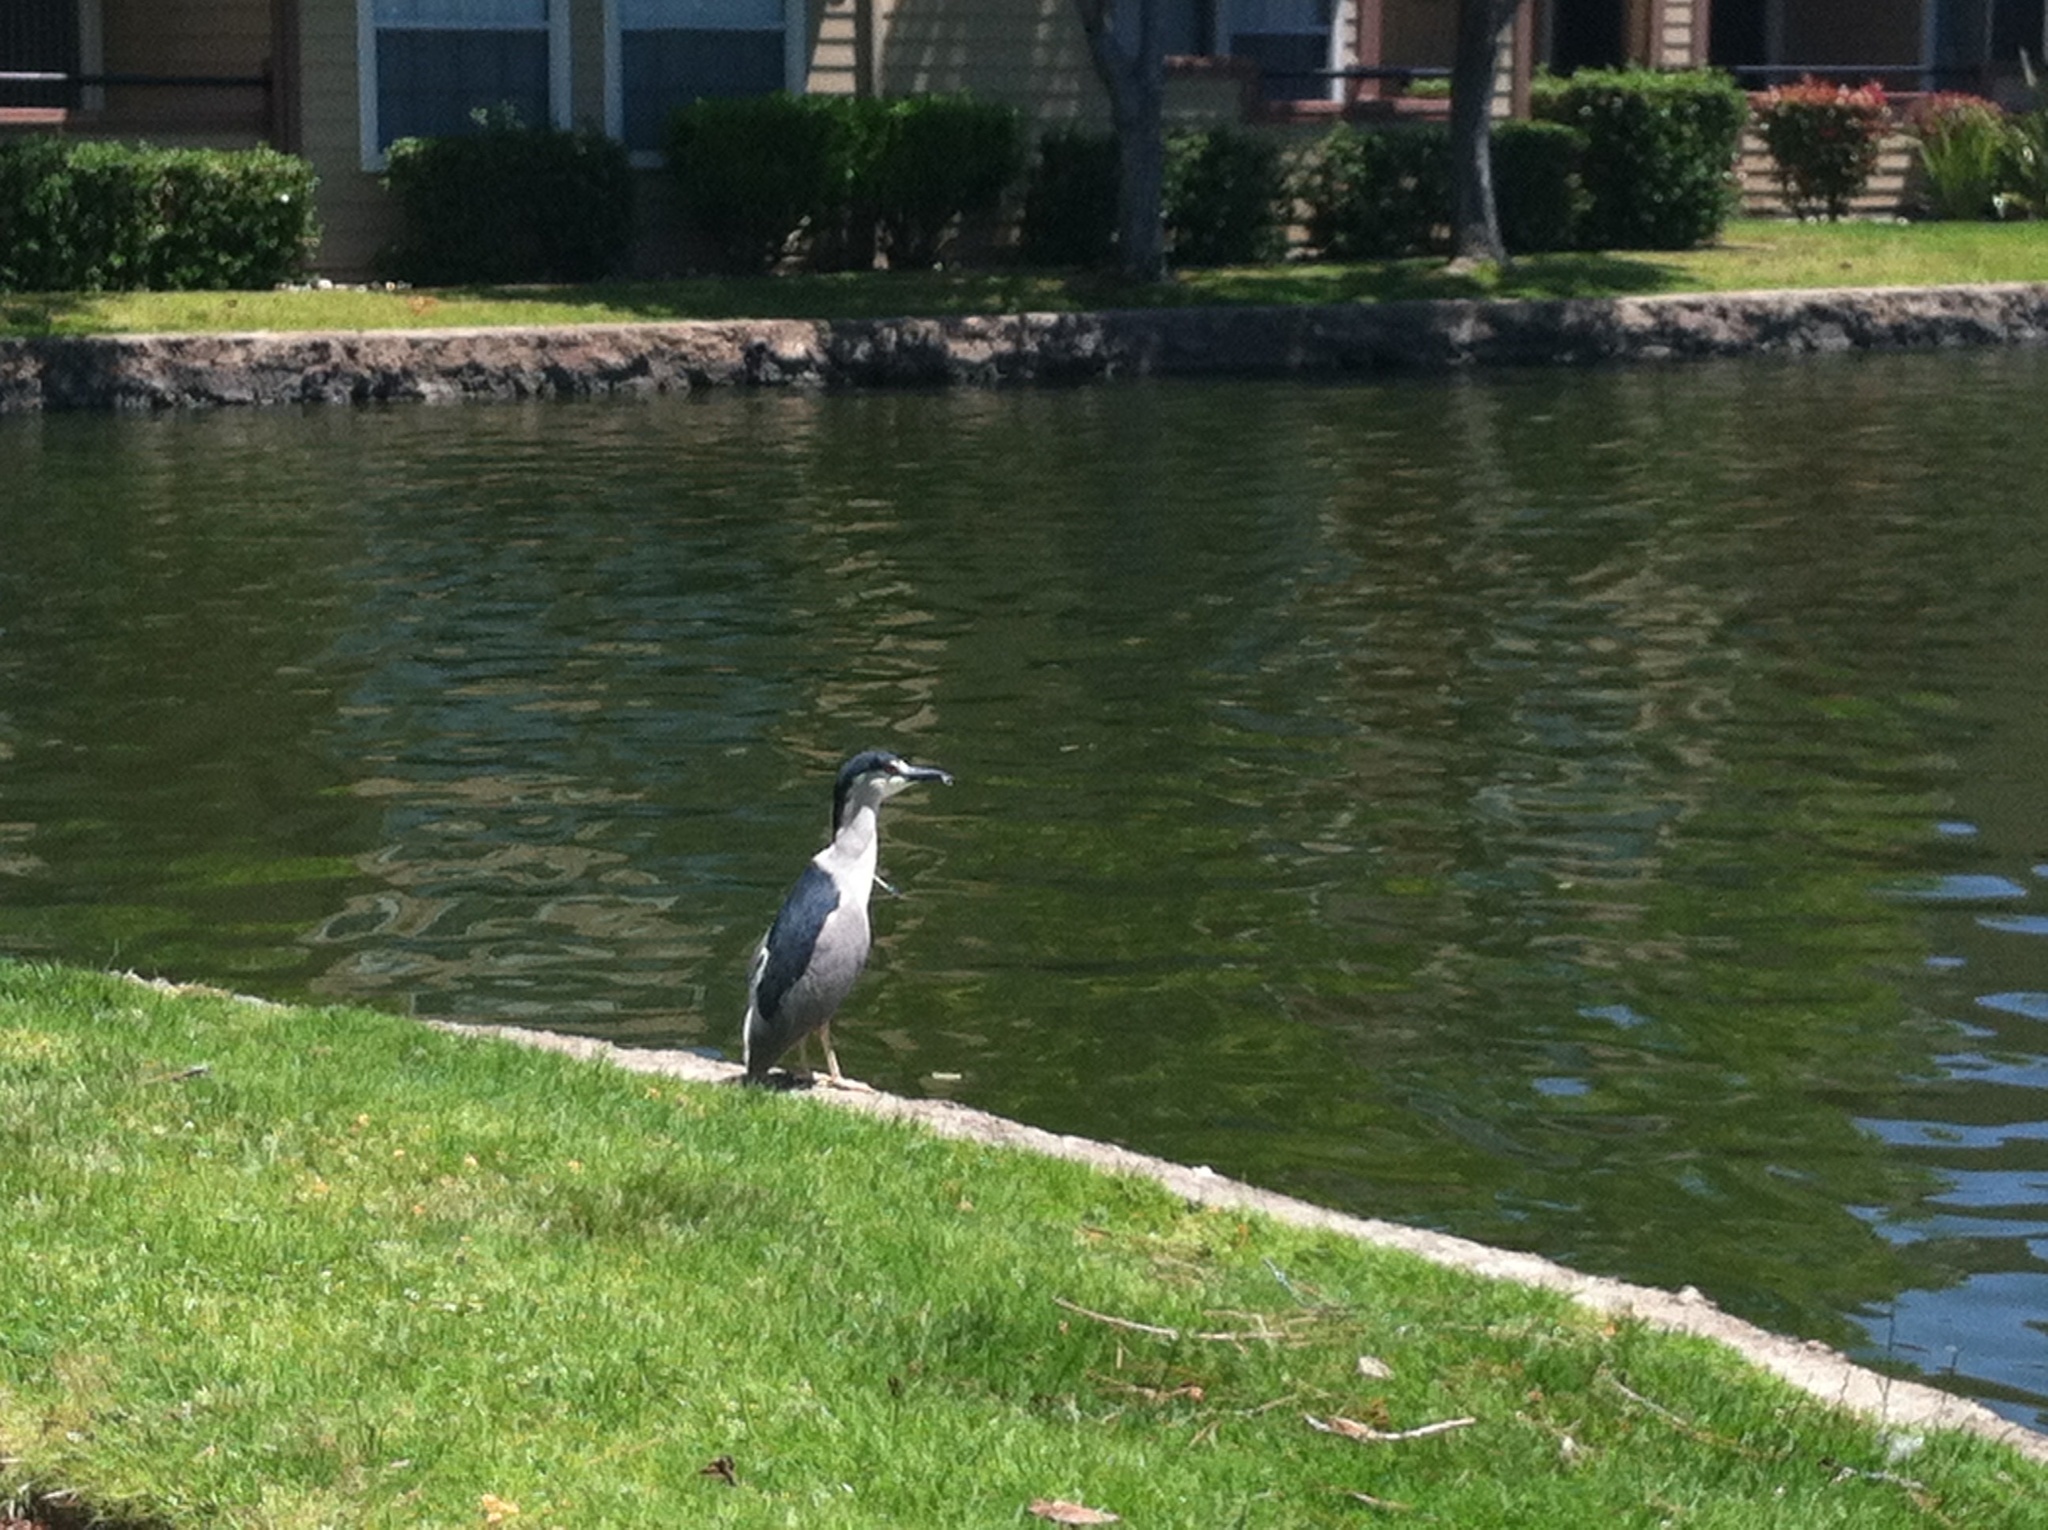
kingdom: Animalia
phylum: Chordata
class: Aves
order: Pelecaniformes
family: Ardeidae
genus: Nycticorax
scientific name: Nycticorax nycticorax
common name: Black-crowned night heron
